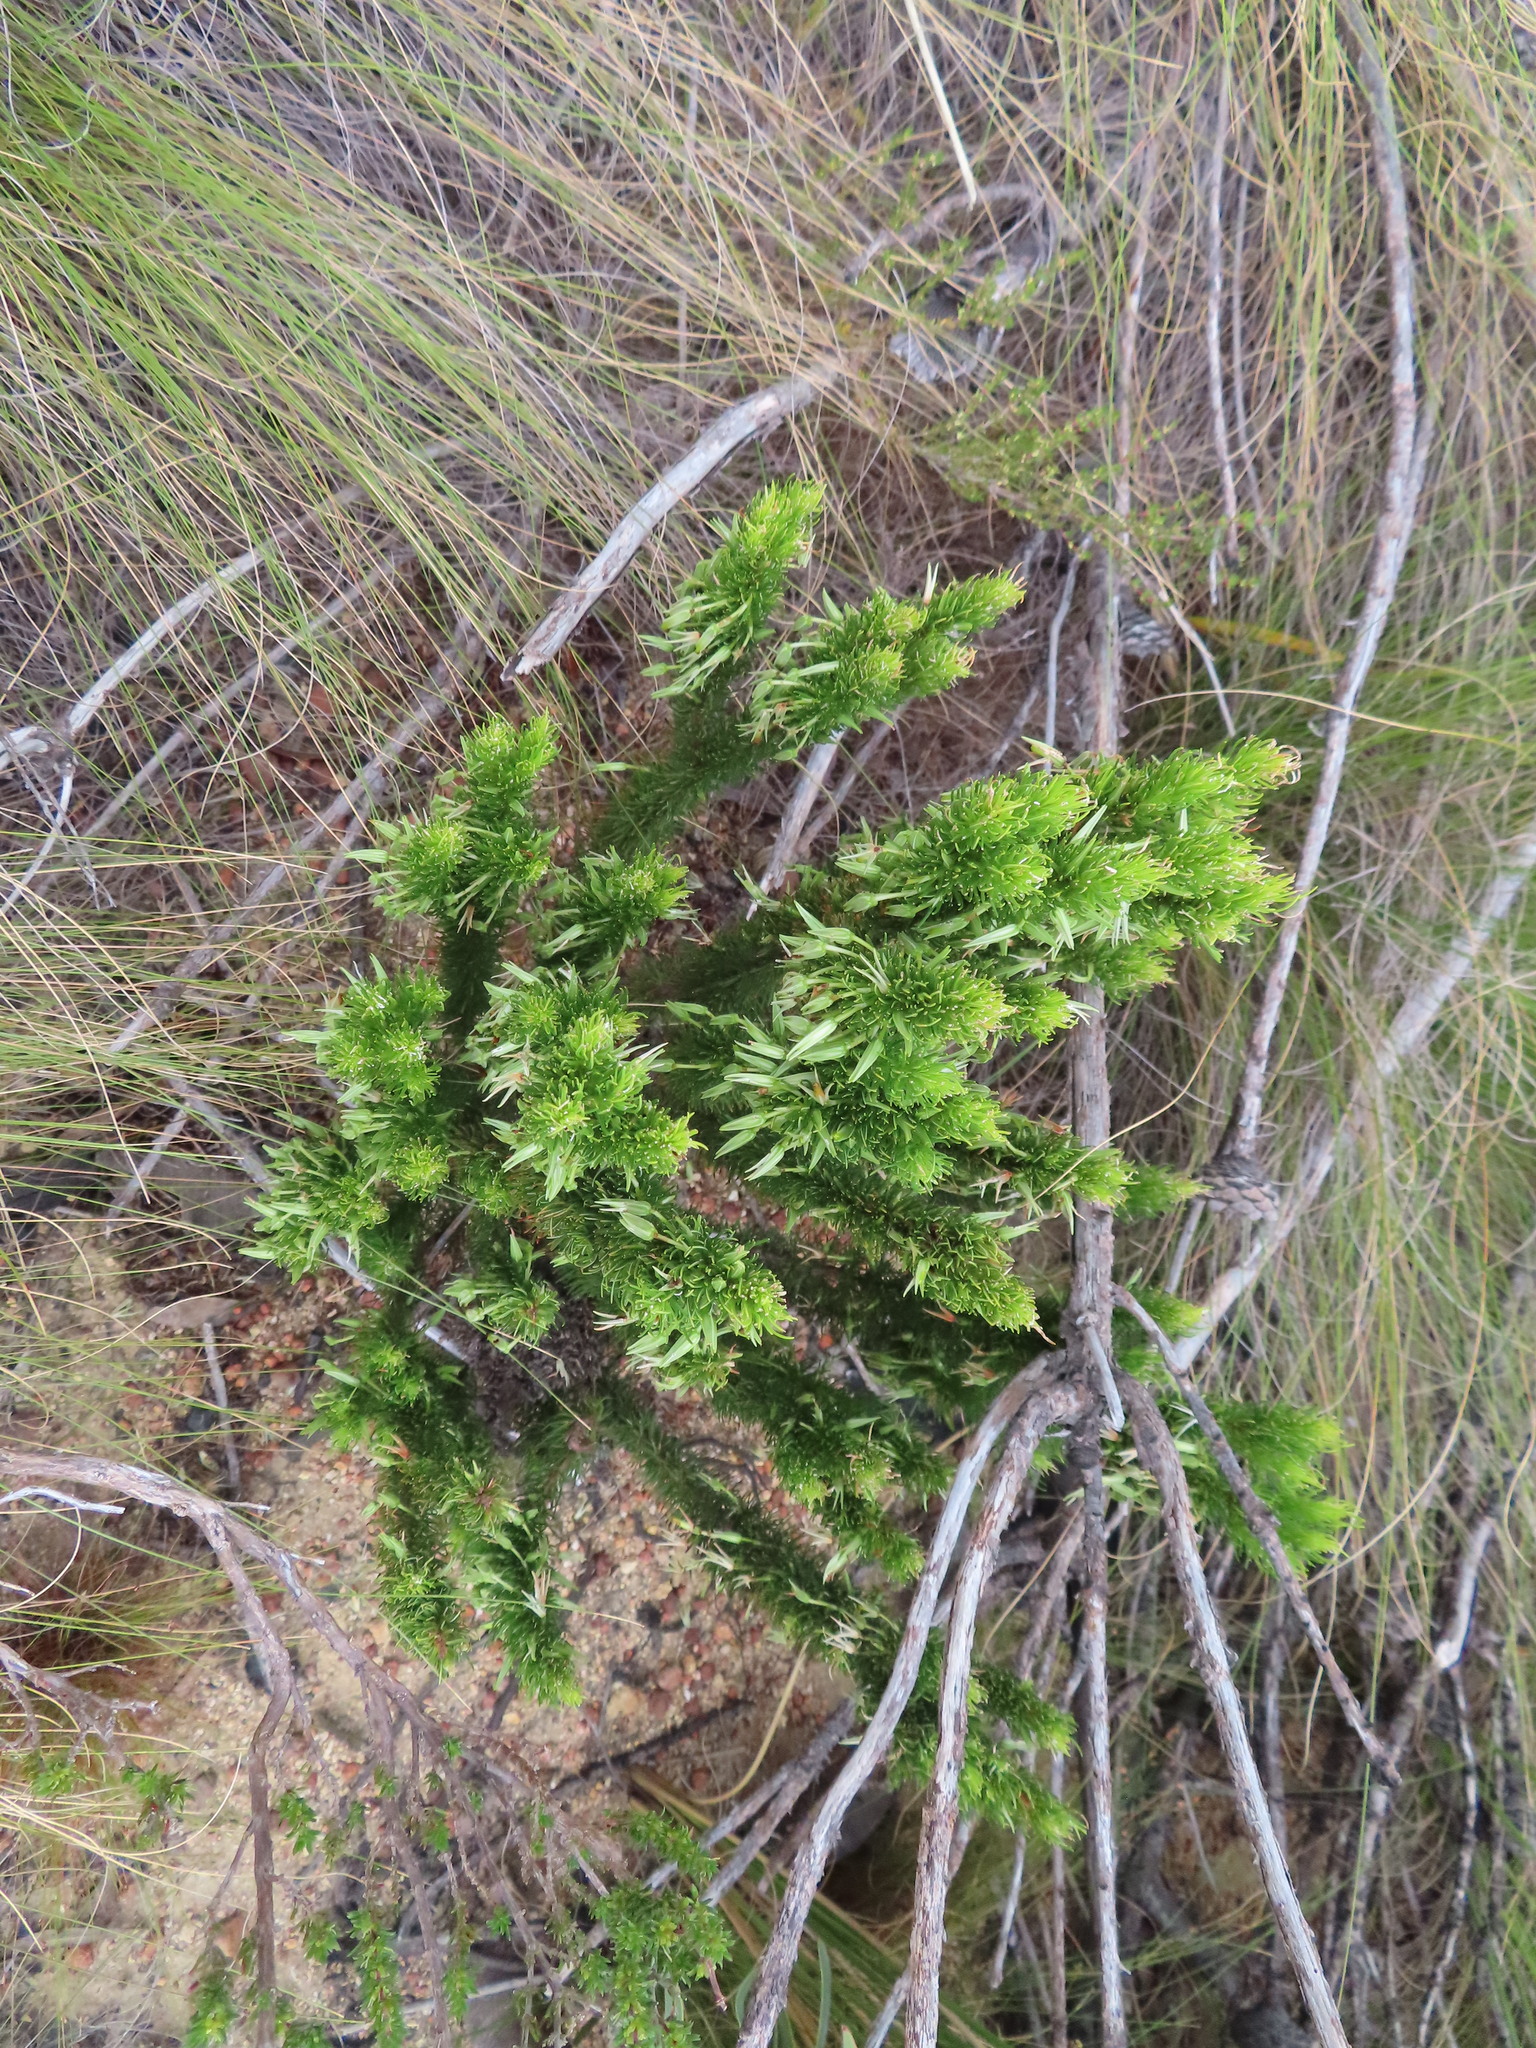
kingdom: Plantae
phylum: Tracheophyta
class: Magnoliopsida
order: Ericales
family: Ericaceae
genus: Erica
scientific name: Erica plukenetii
